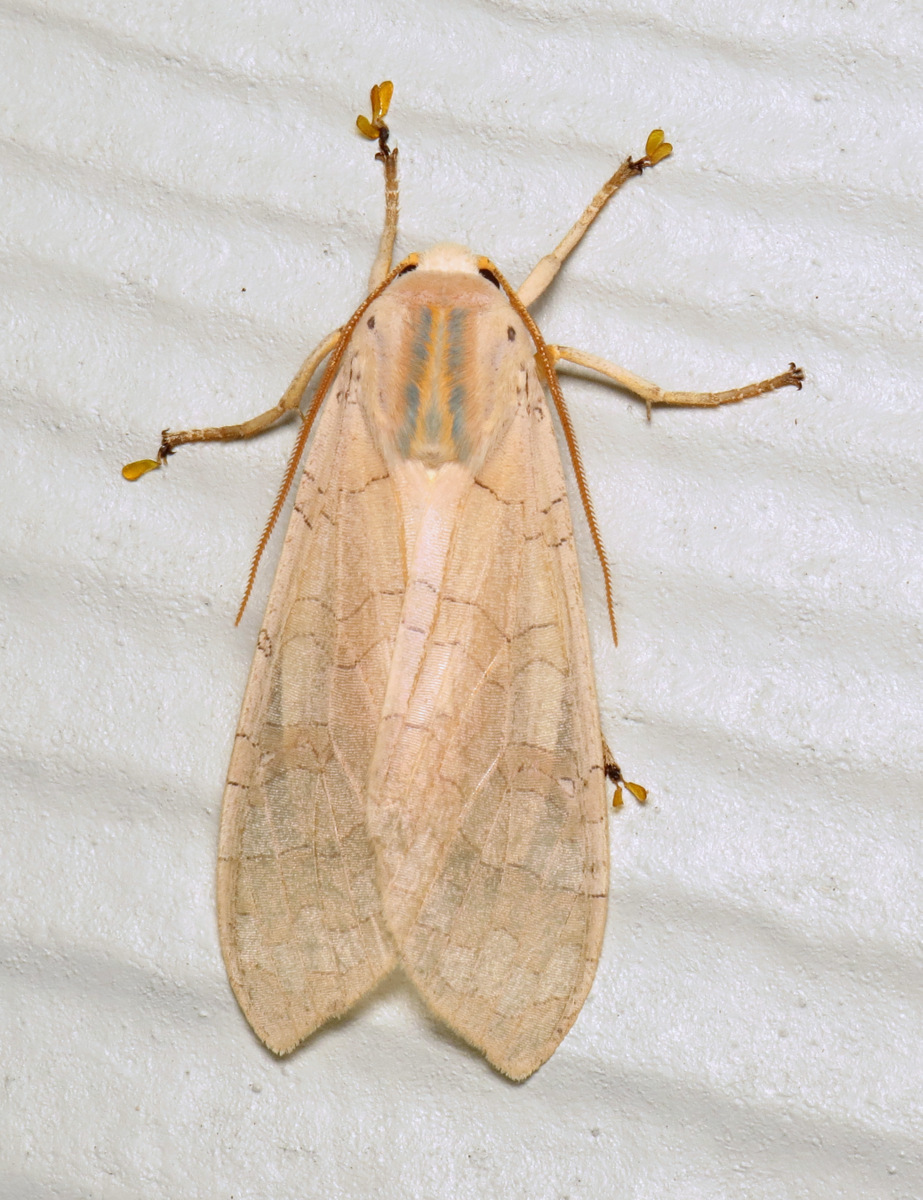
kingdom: Animalia
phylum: Arthropoda
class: Insecta
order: Lepidoptera
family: Erebidae
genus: Halysidota
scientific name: Halysidota tessellaris
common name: Banded tussock moth
